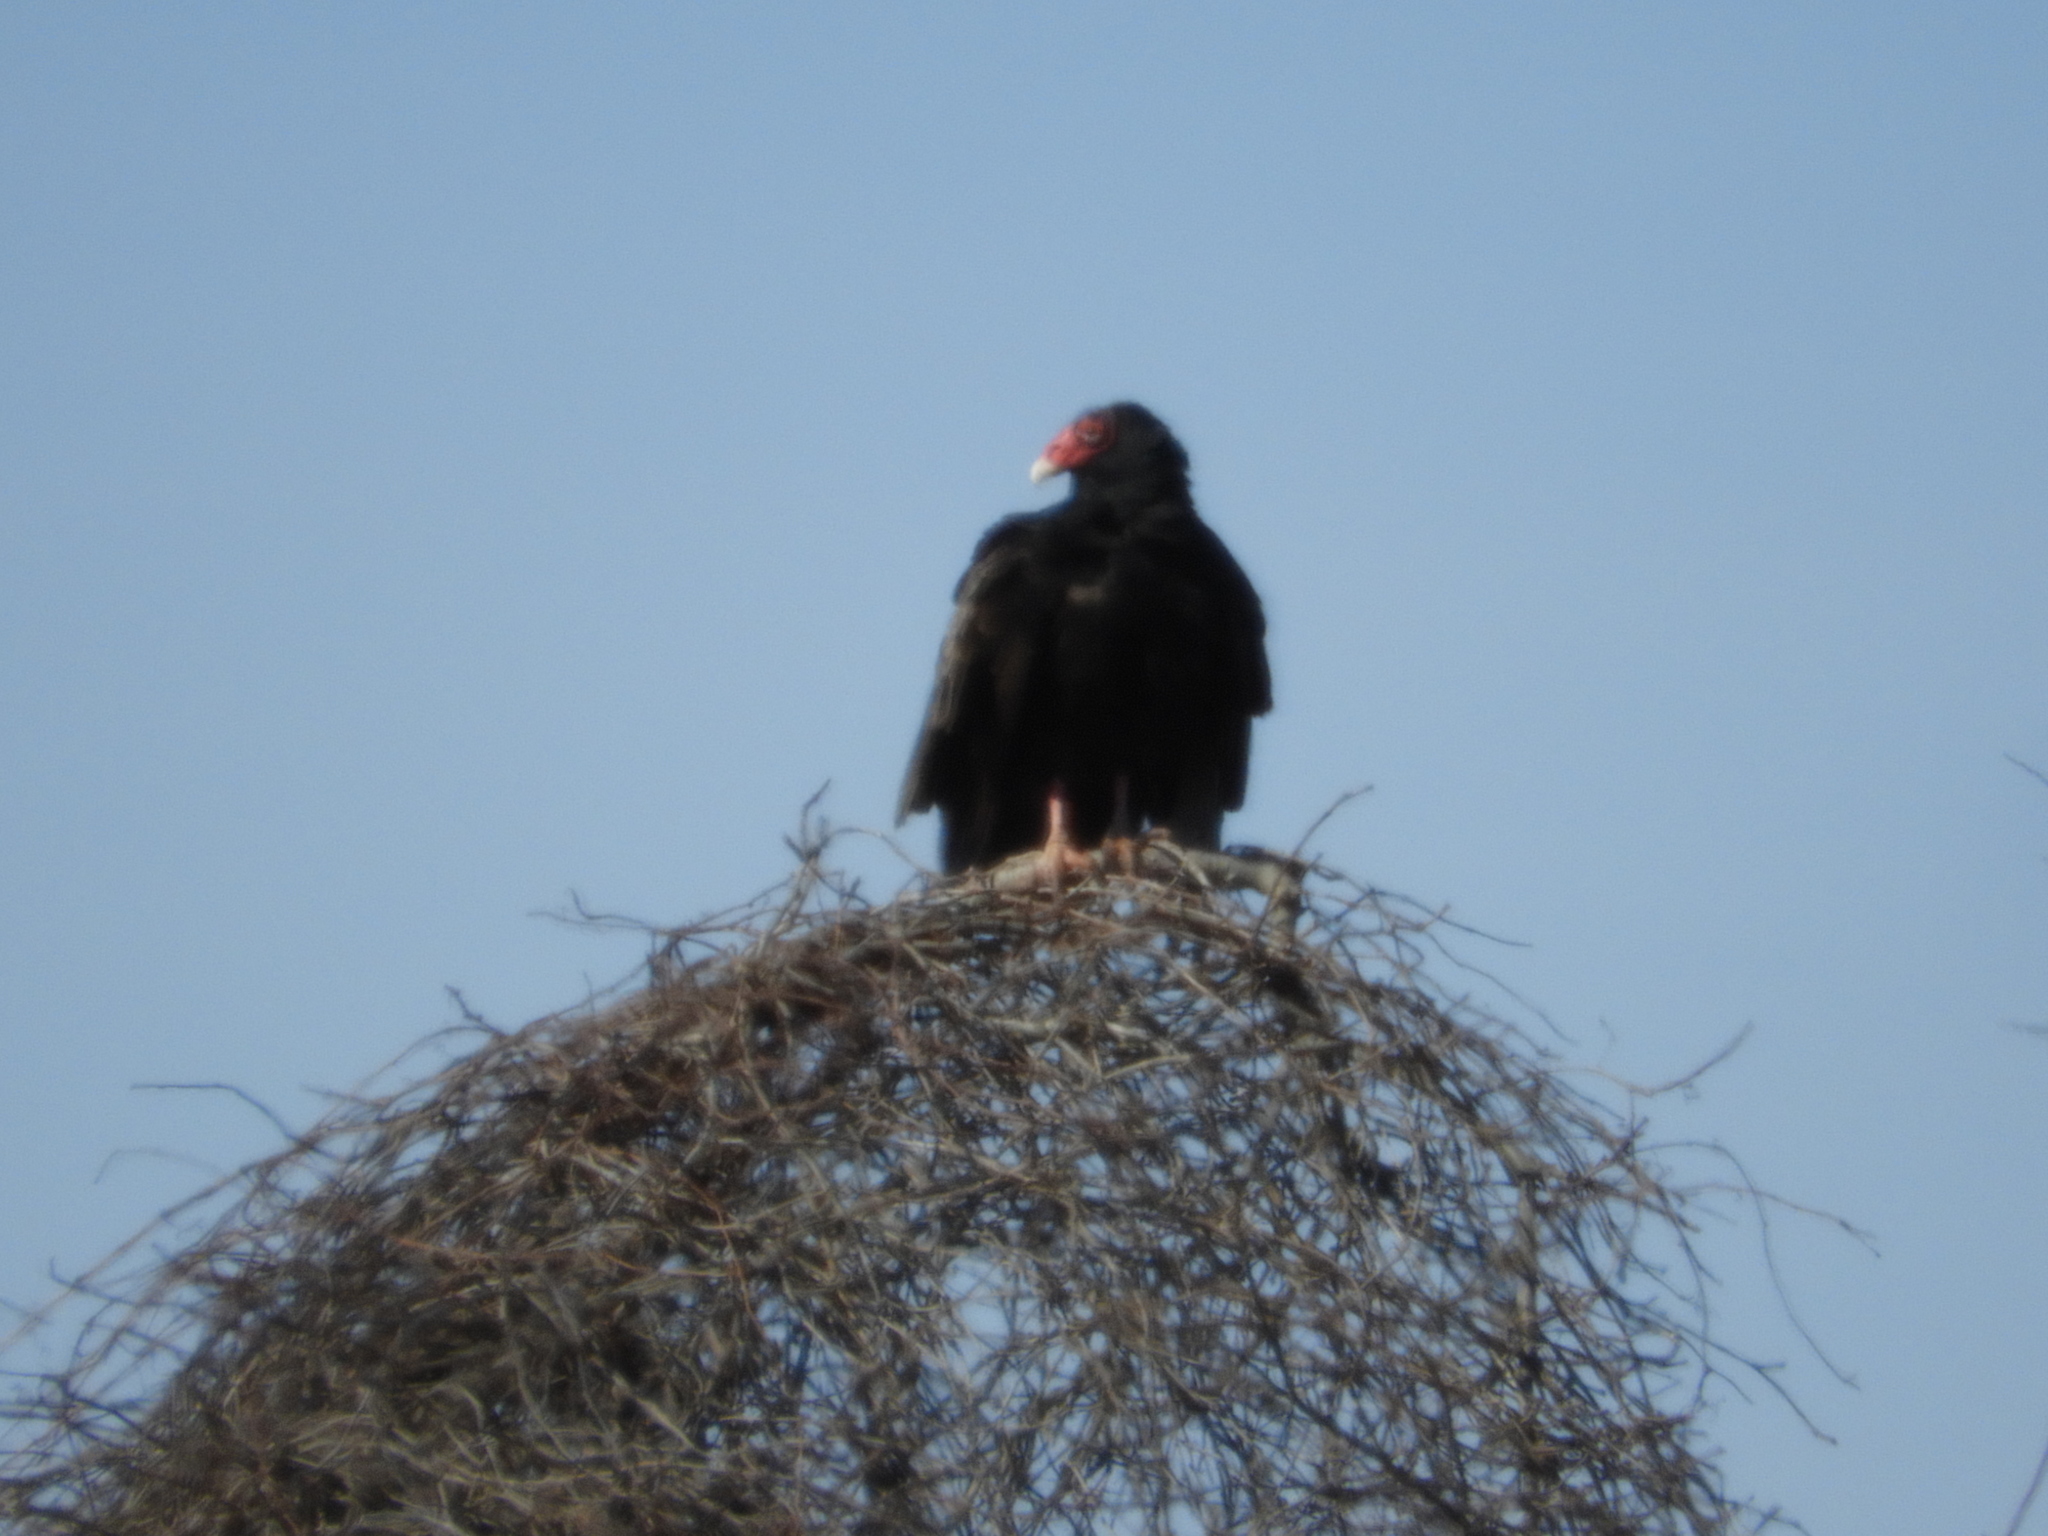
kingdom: Animalia
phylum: Chordata
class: Aves
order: Accipitriformes
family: Cathartidae
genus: Cathartes
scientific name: Cathartes aura
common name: Turkey vulture
